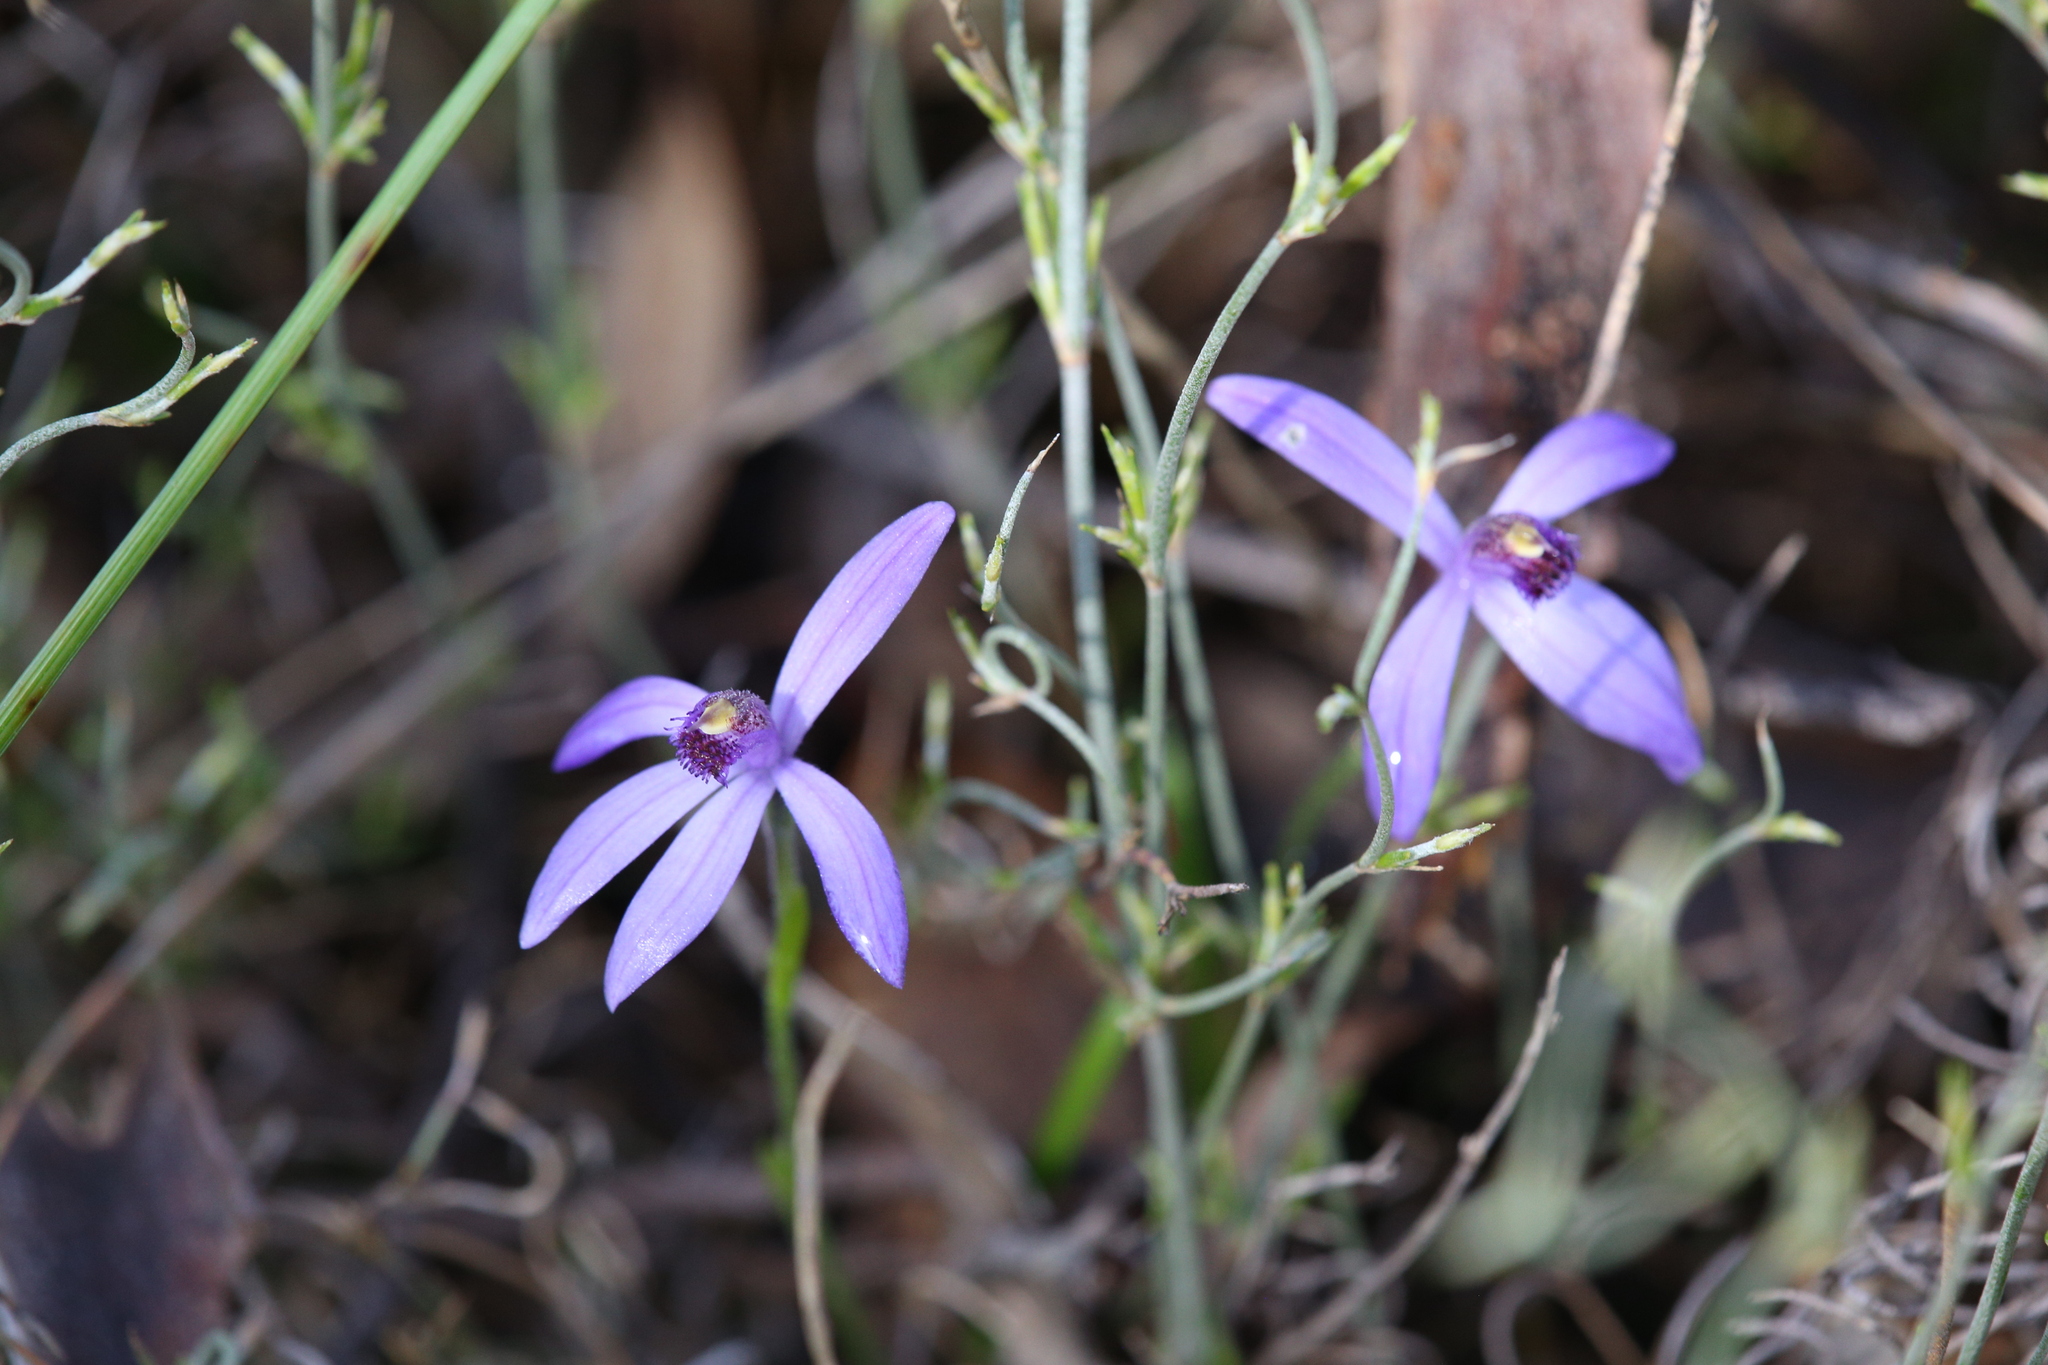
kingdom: Plantae
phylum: Tracheophyta
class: Liliopsida
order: Asparagales
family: Orchidaceae
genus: Pheladenia
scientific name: Pheladenia deformis
